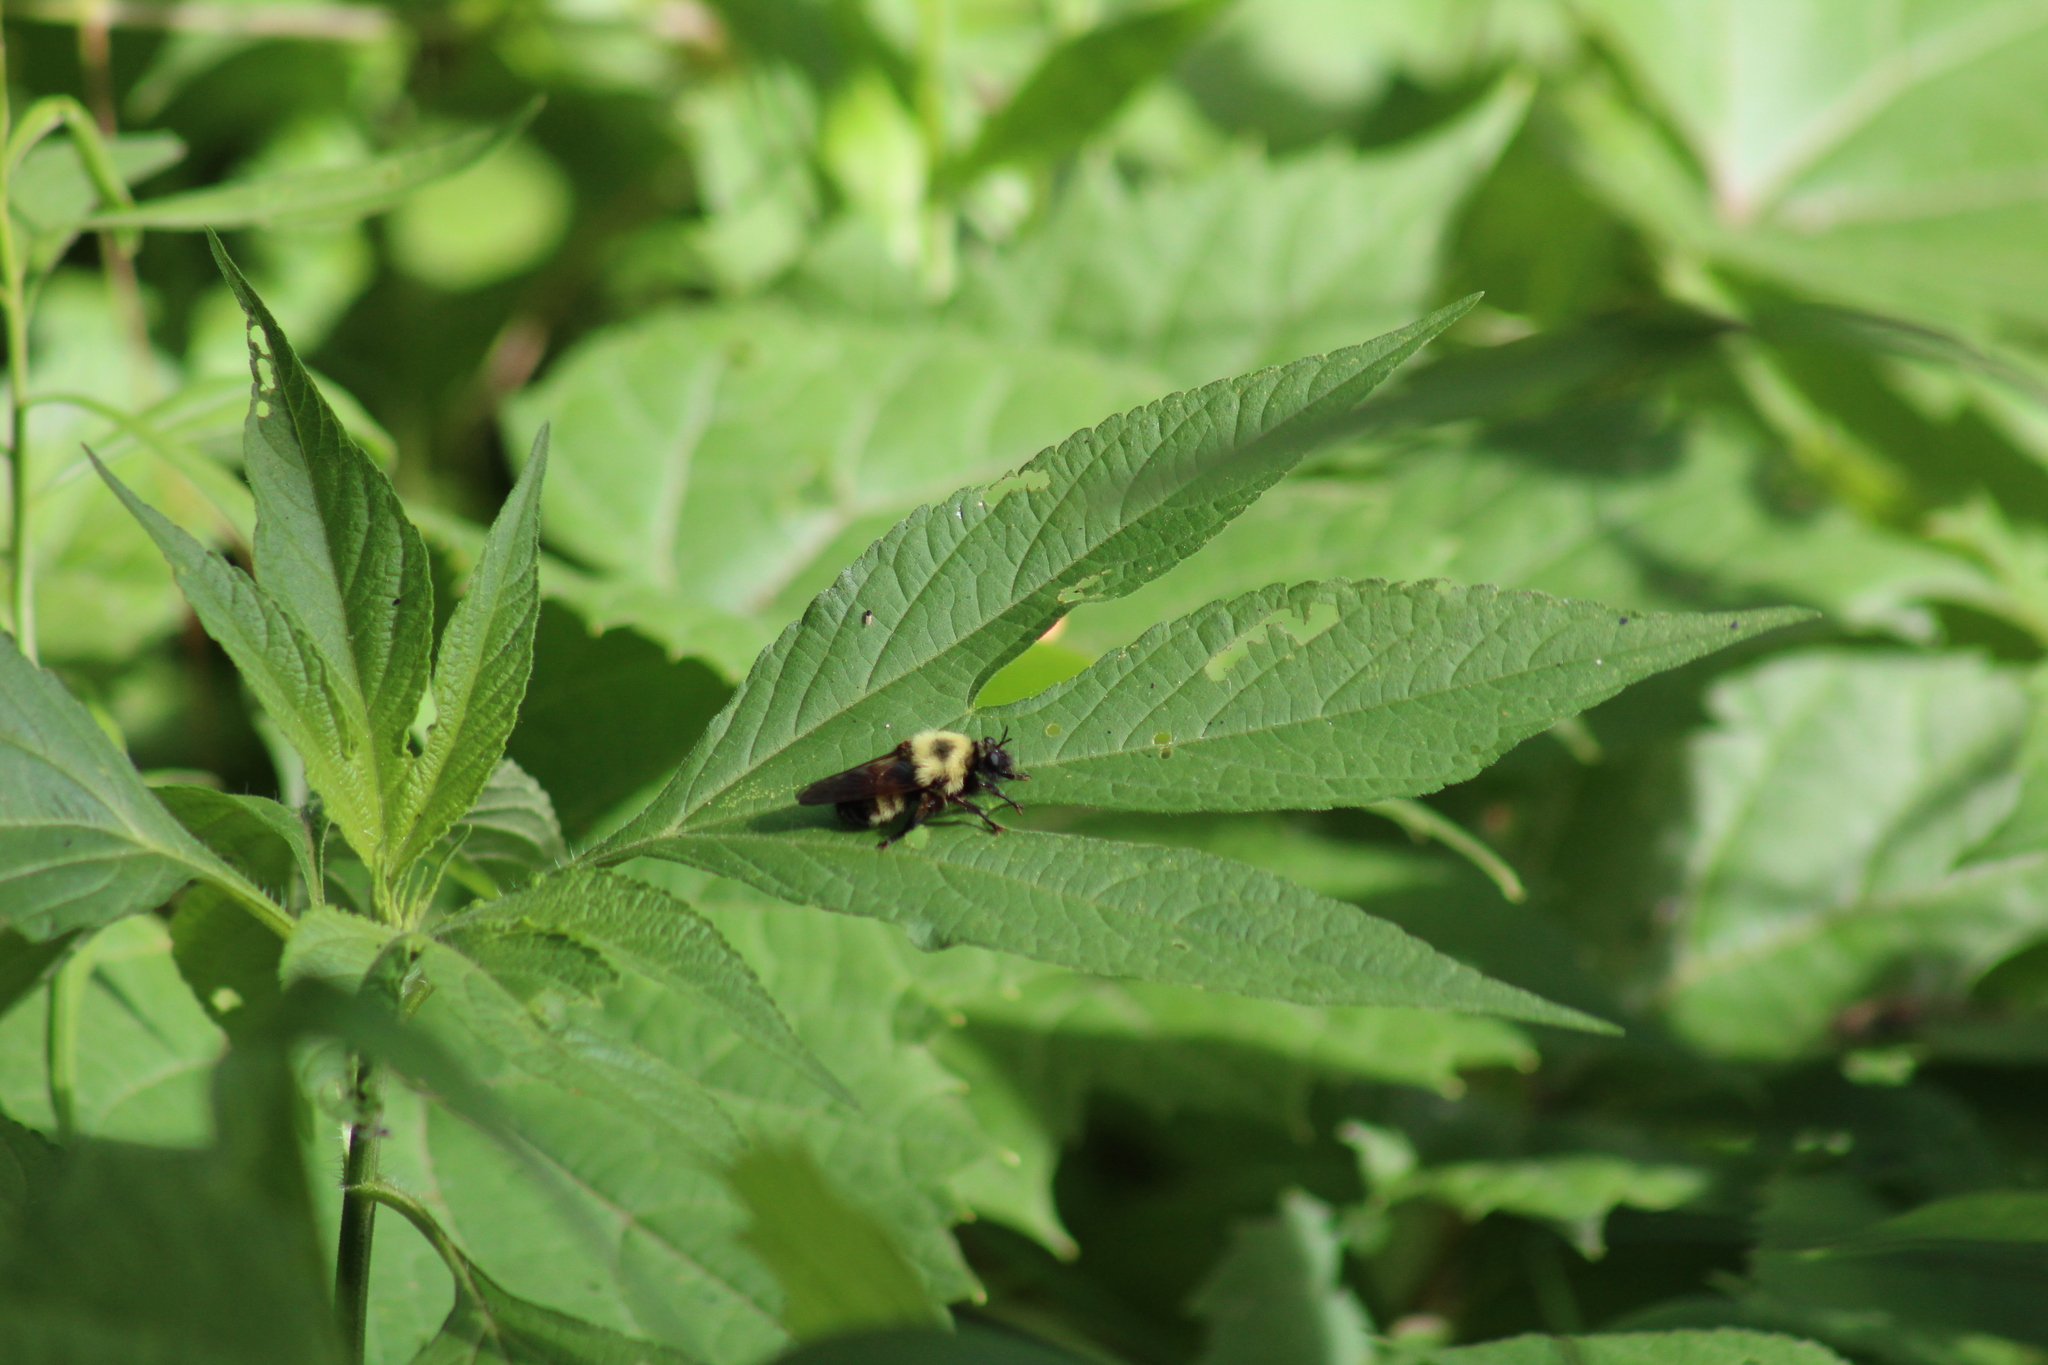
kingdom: Animalia
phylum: Arthropoda
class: Insecta
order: Diptera
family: Asilidae
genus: Laphria
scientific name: Laphria thoracica
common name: Bumble bee mimic robber fly
